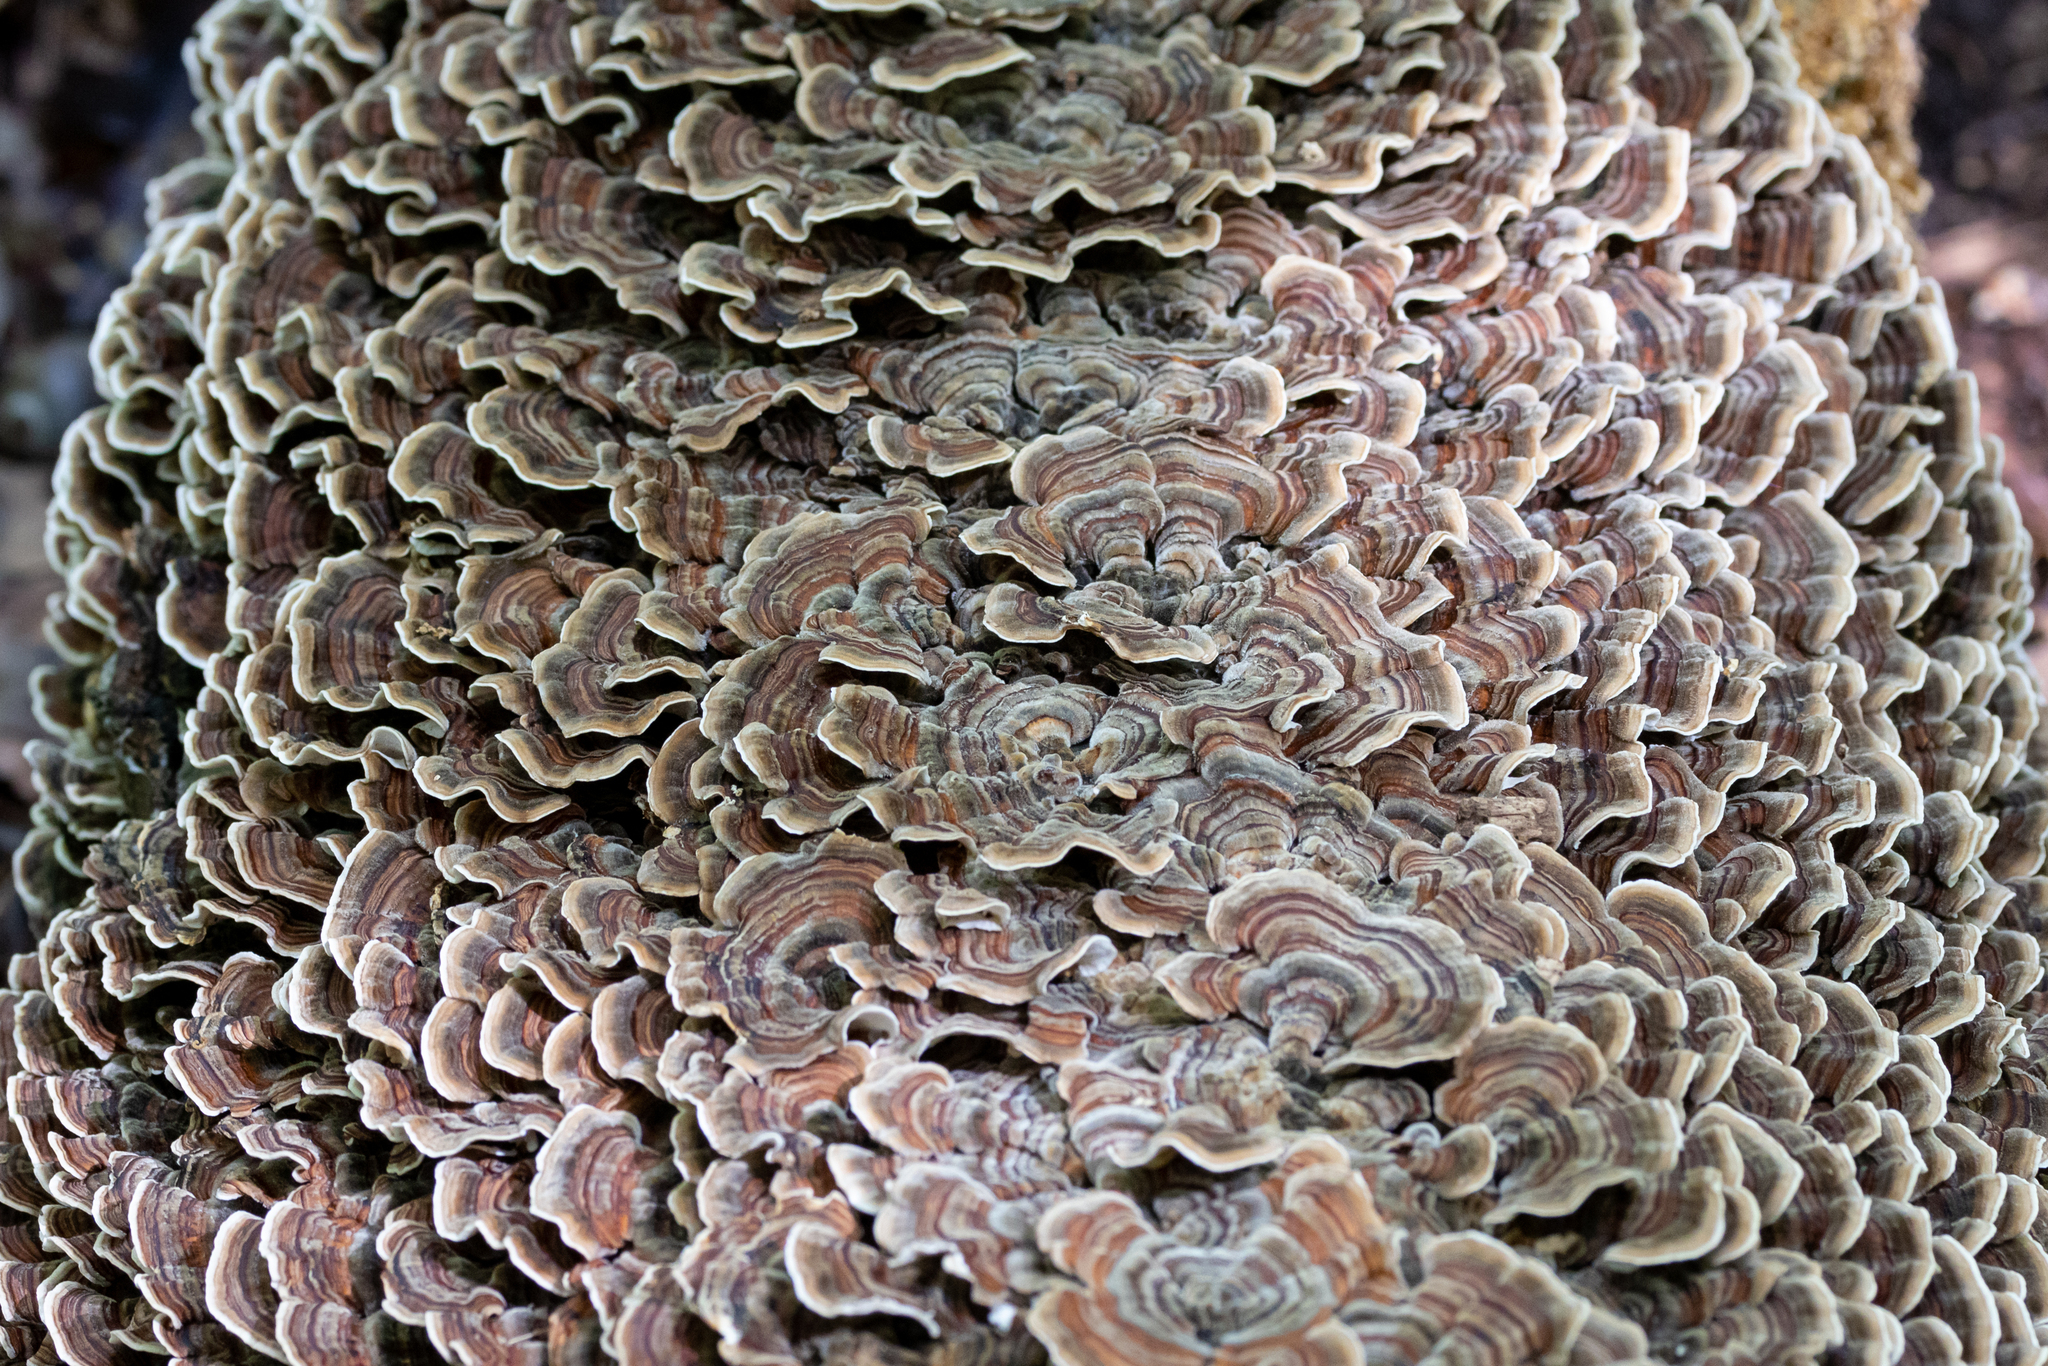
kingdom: Fungi
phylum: Basidiomycota
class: Agaricomycetes
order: Polyporales
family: Polyporaceae
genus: Trametes
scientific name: Trametes versicolor
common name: Turkeytail
